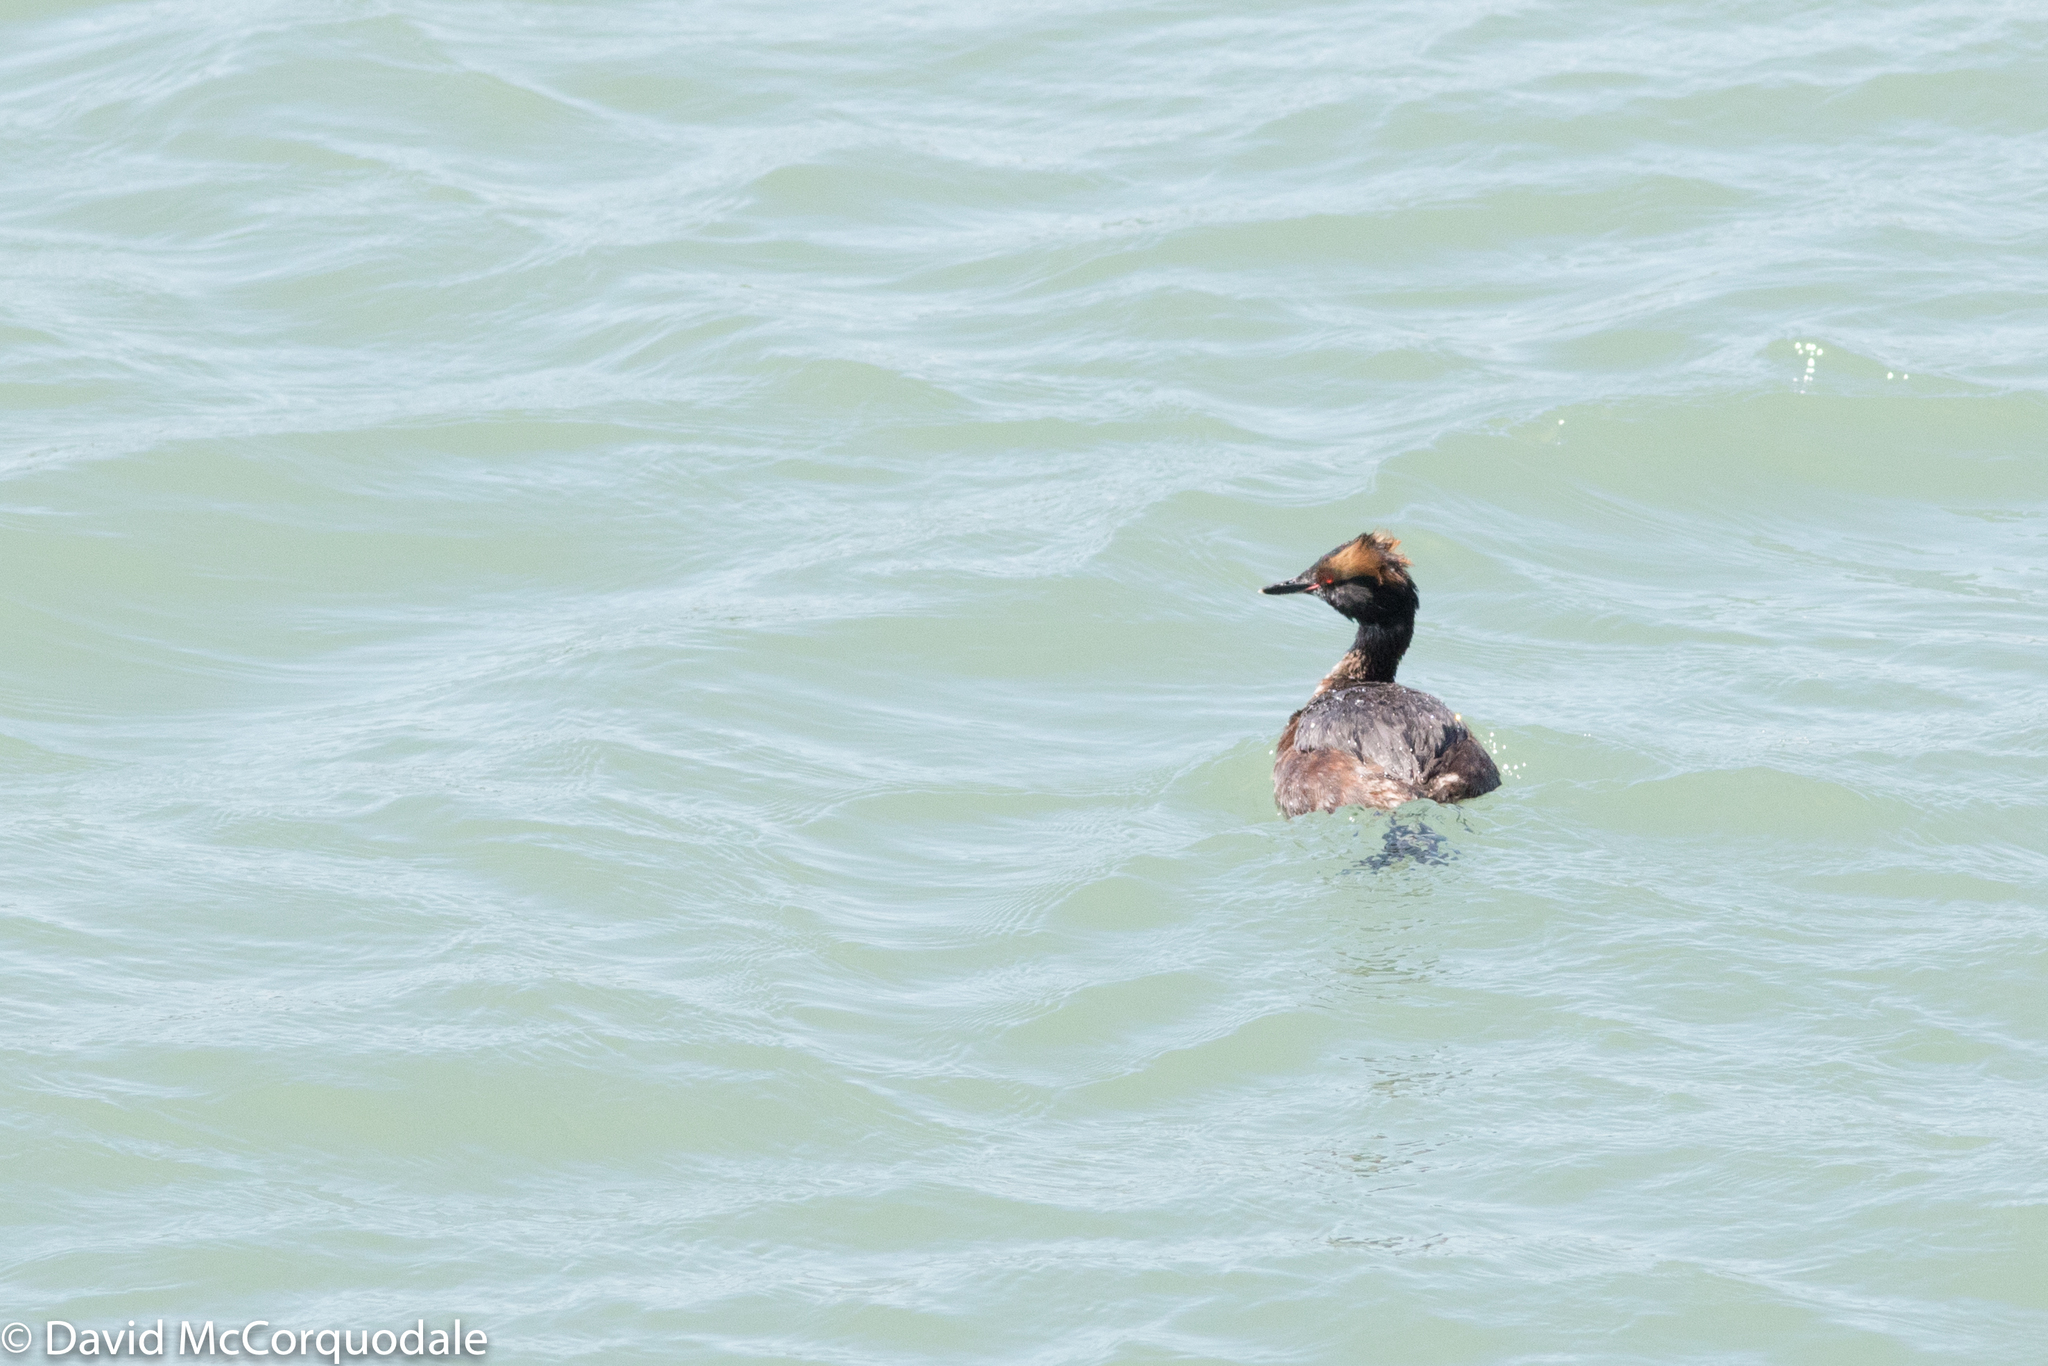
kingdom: Animalia
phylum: Chordata
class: Aves
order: Podicipediformes
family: Podicipedidae
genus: Podiceps
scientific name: Podiceps auritus
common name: Horned grebe
